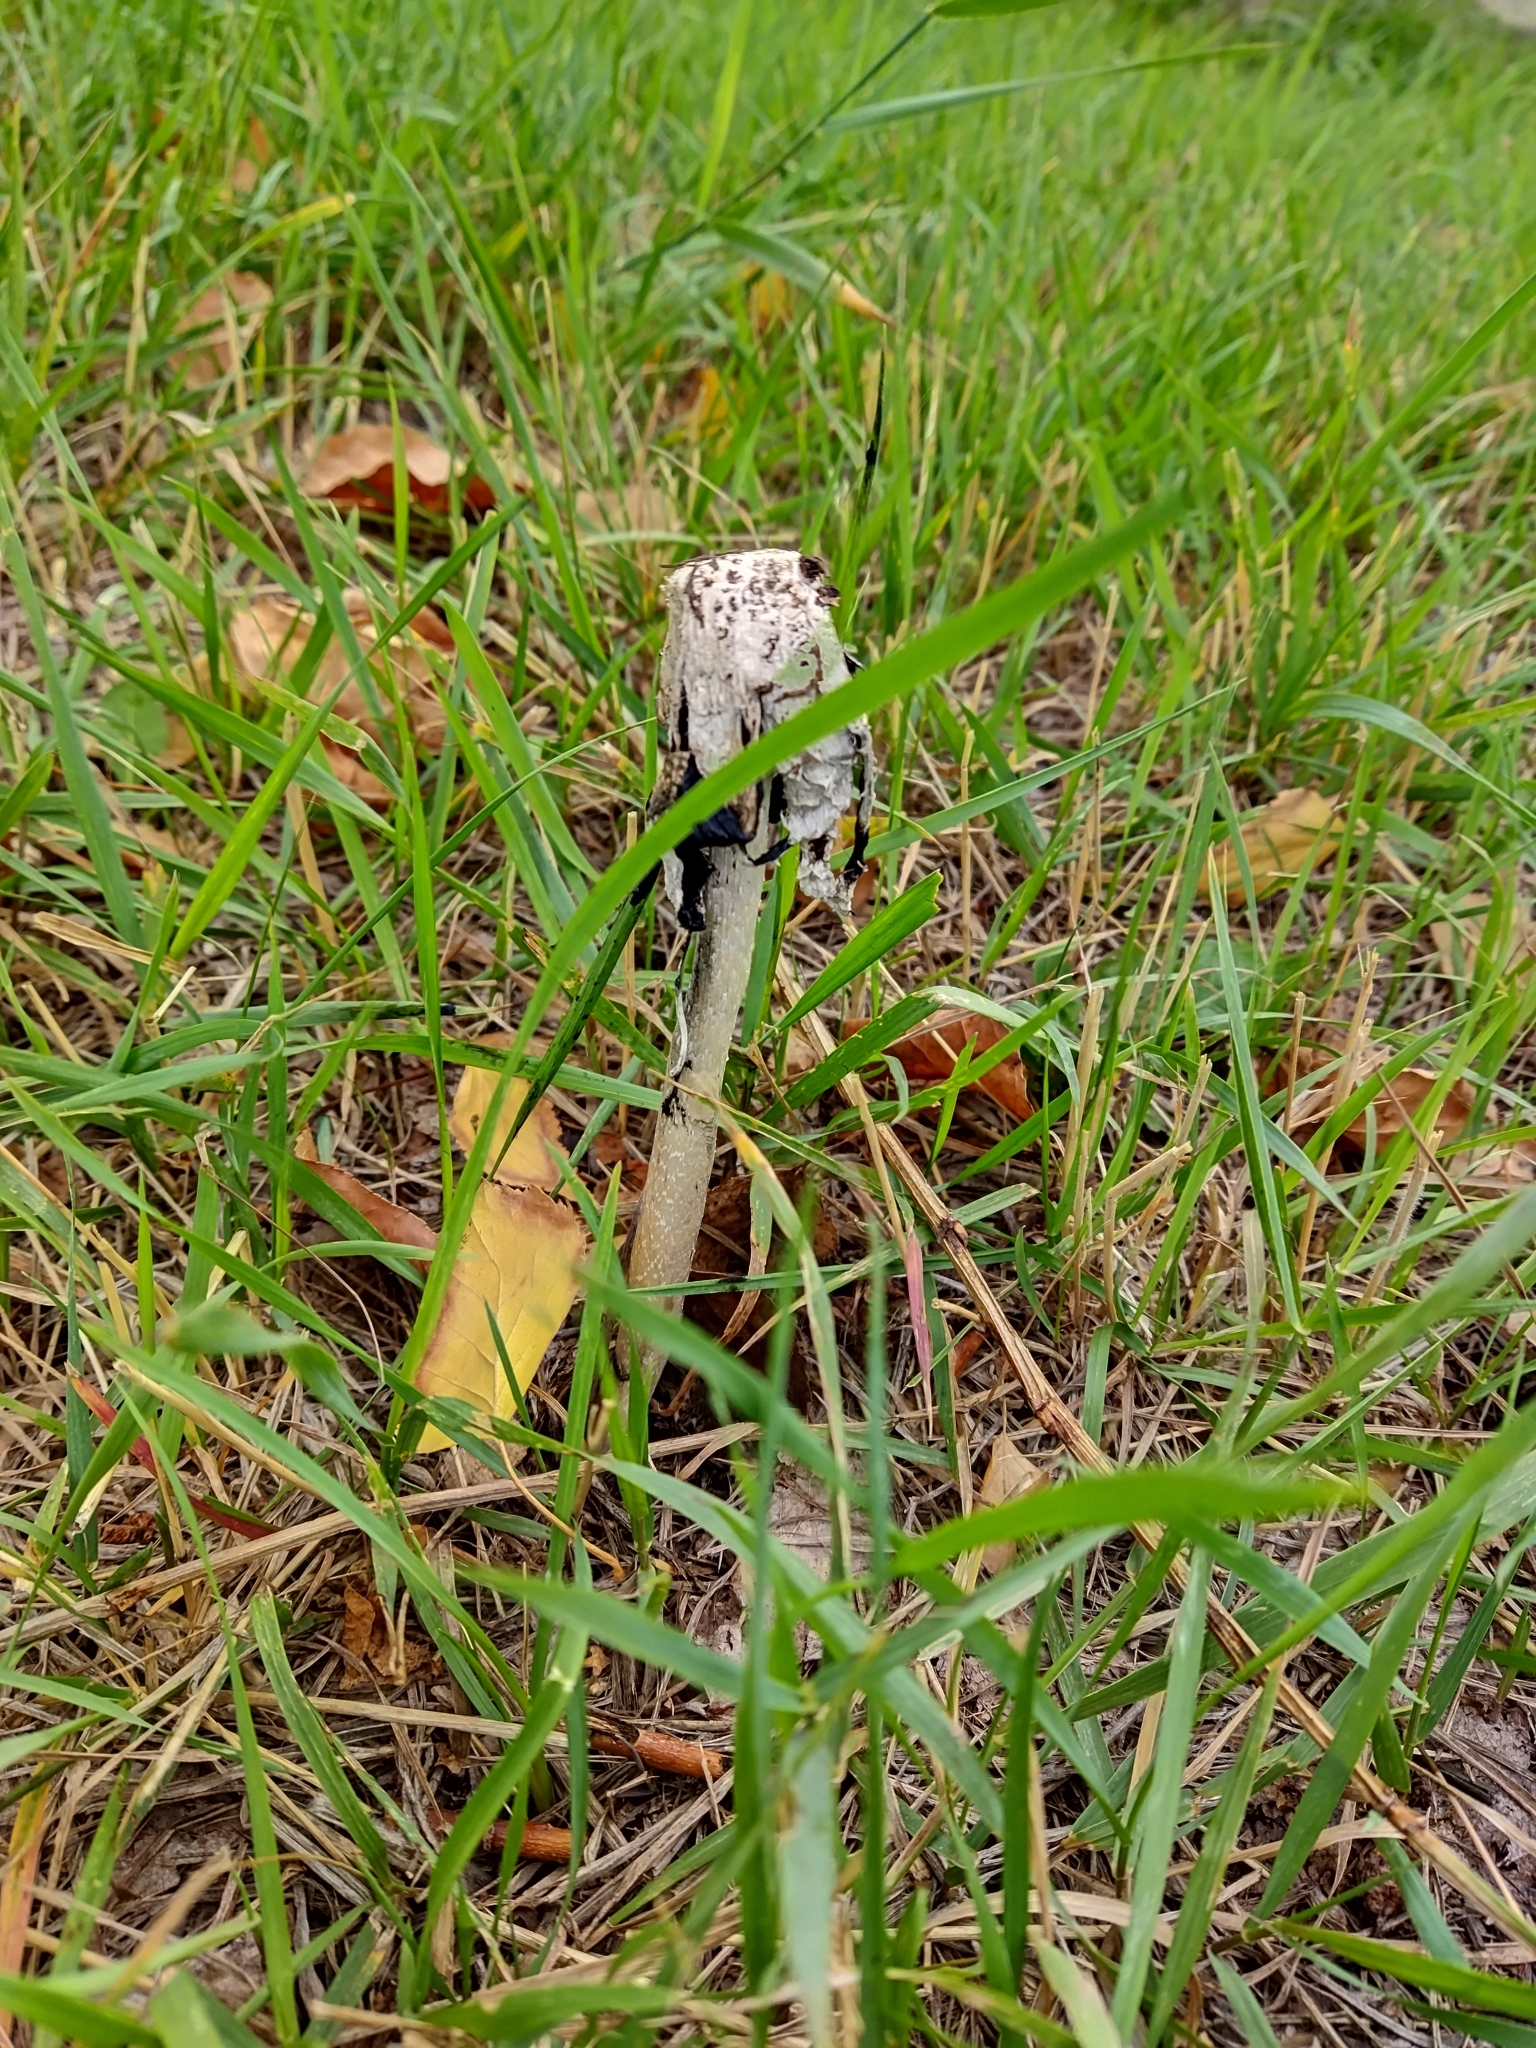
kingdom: Fungi
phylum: Basidiomycota
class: Agaricomycetes
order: Agaricales
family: Agaricaceae
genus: Coprinus
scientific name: Coprinus comatus
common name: Lawyer's wig
